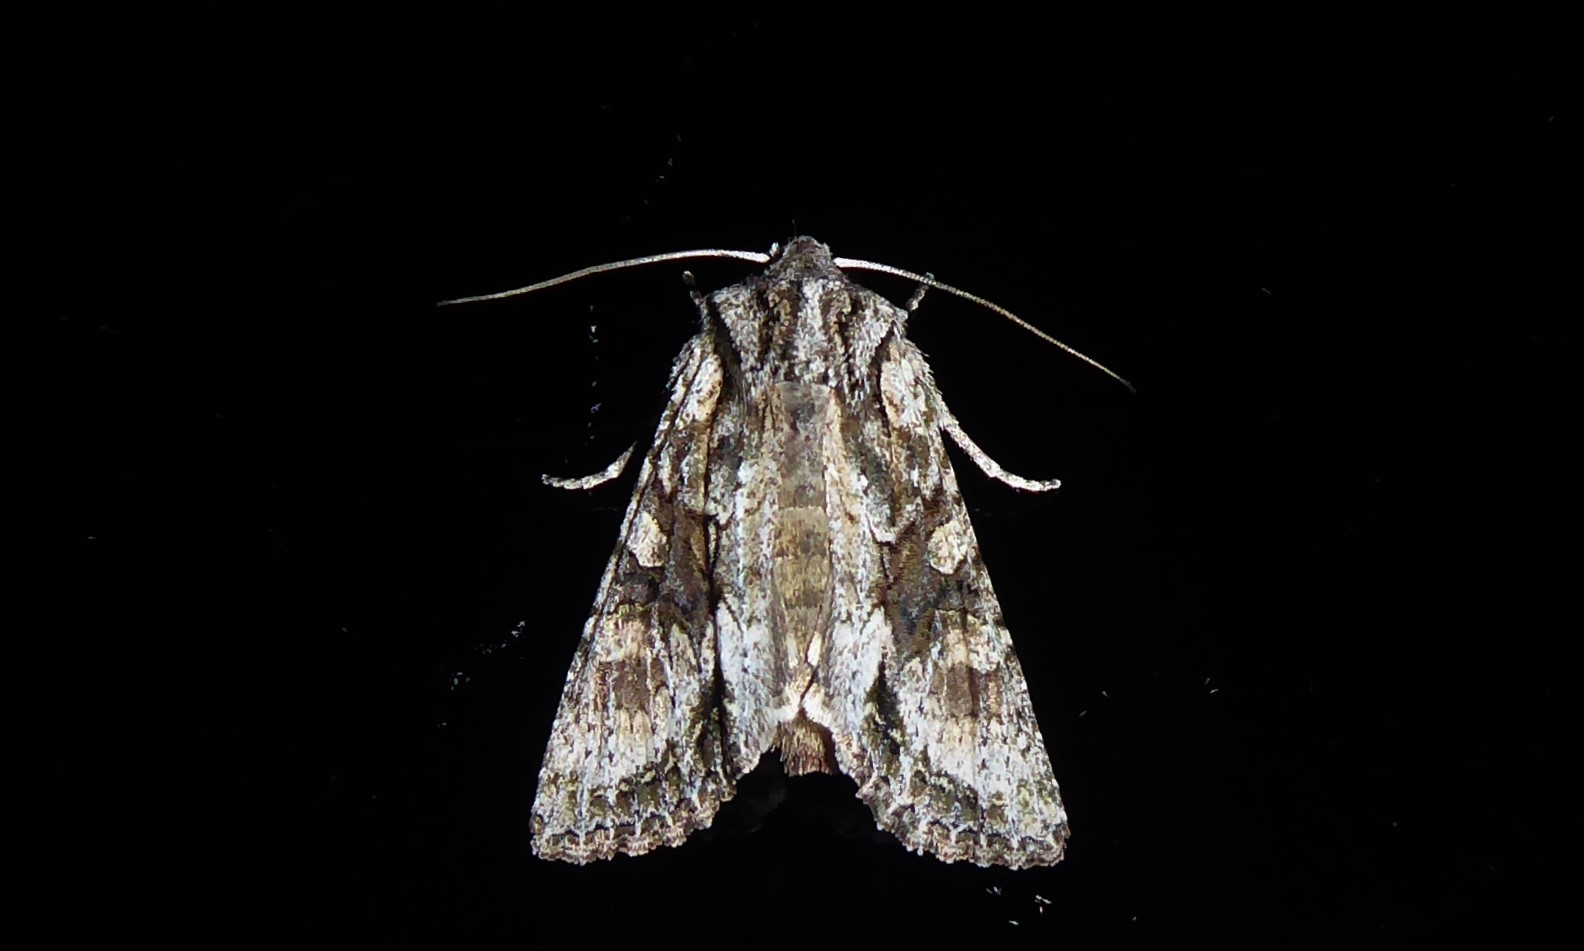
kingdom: Animalia
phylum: Arthropoda
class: Insecta
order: Lepidoptera
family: Noctuidae
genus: Ichneutica
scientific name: Ichneutica mutans
